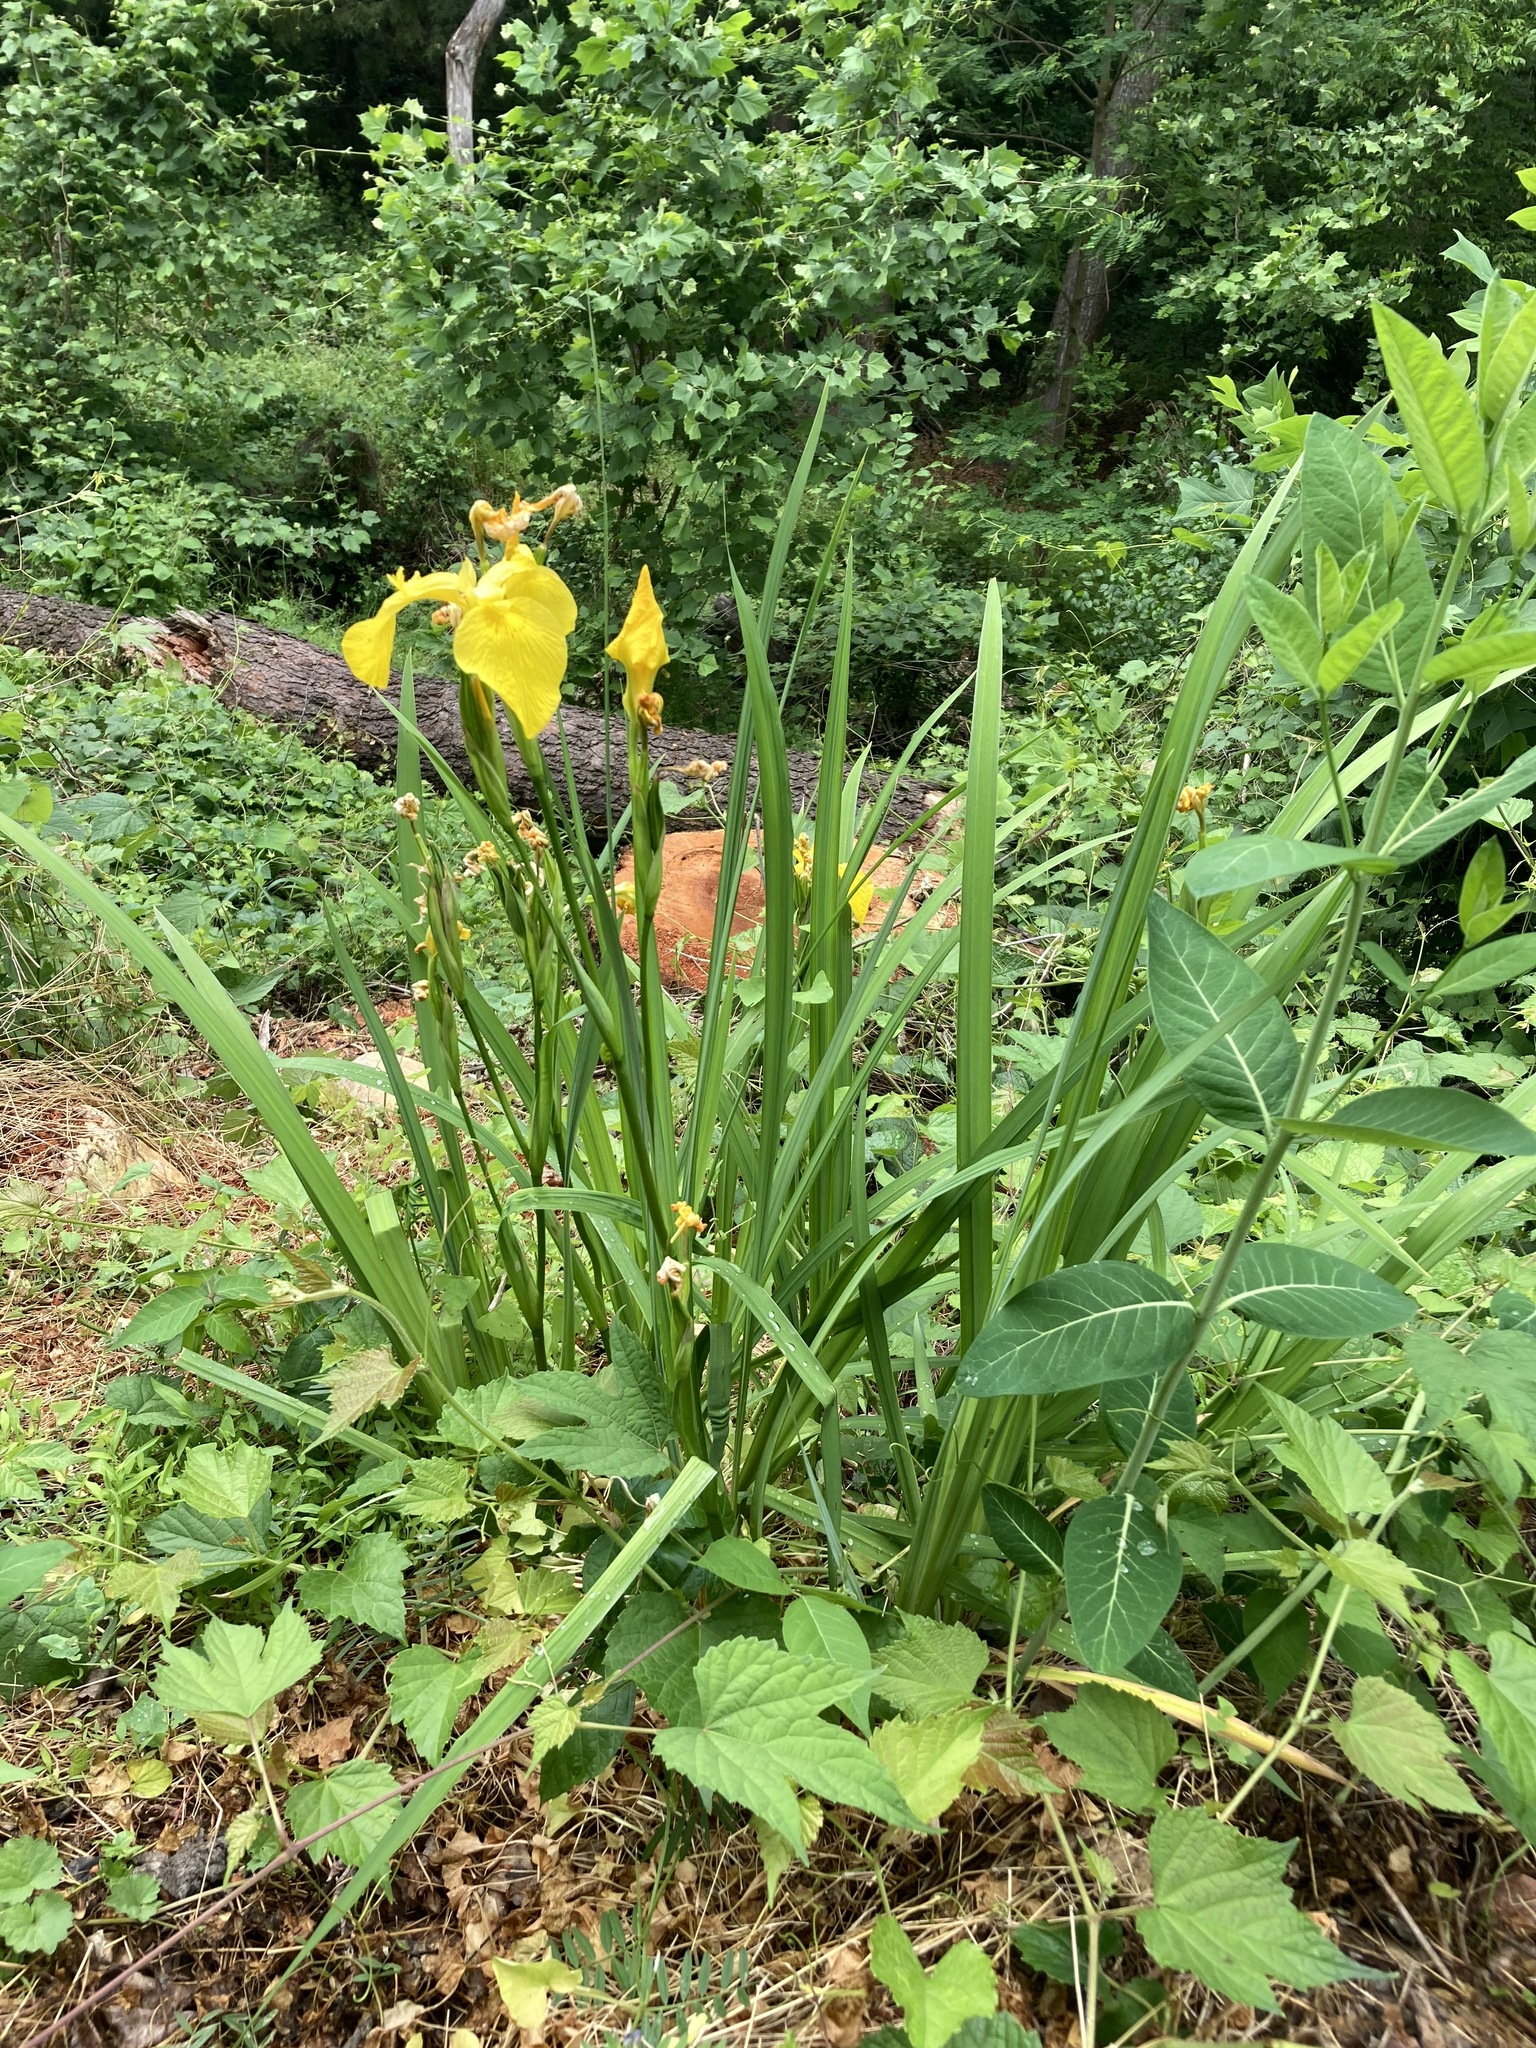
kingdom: Plantae
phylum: Tracheophyta
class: Liliopsida
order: Asparagales
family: Iridaceae
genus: Iris
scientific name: Iris pseudacorus
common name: Yellow flag
